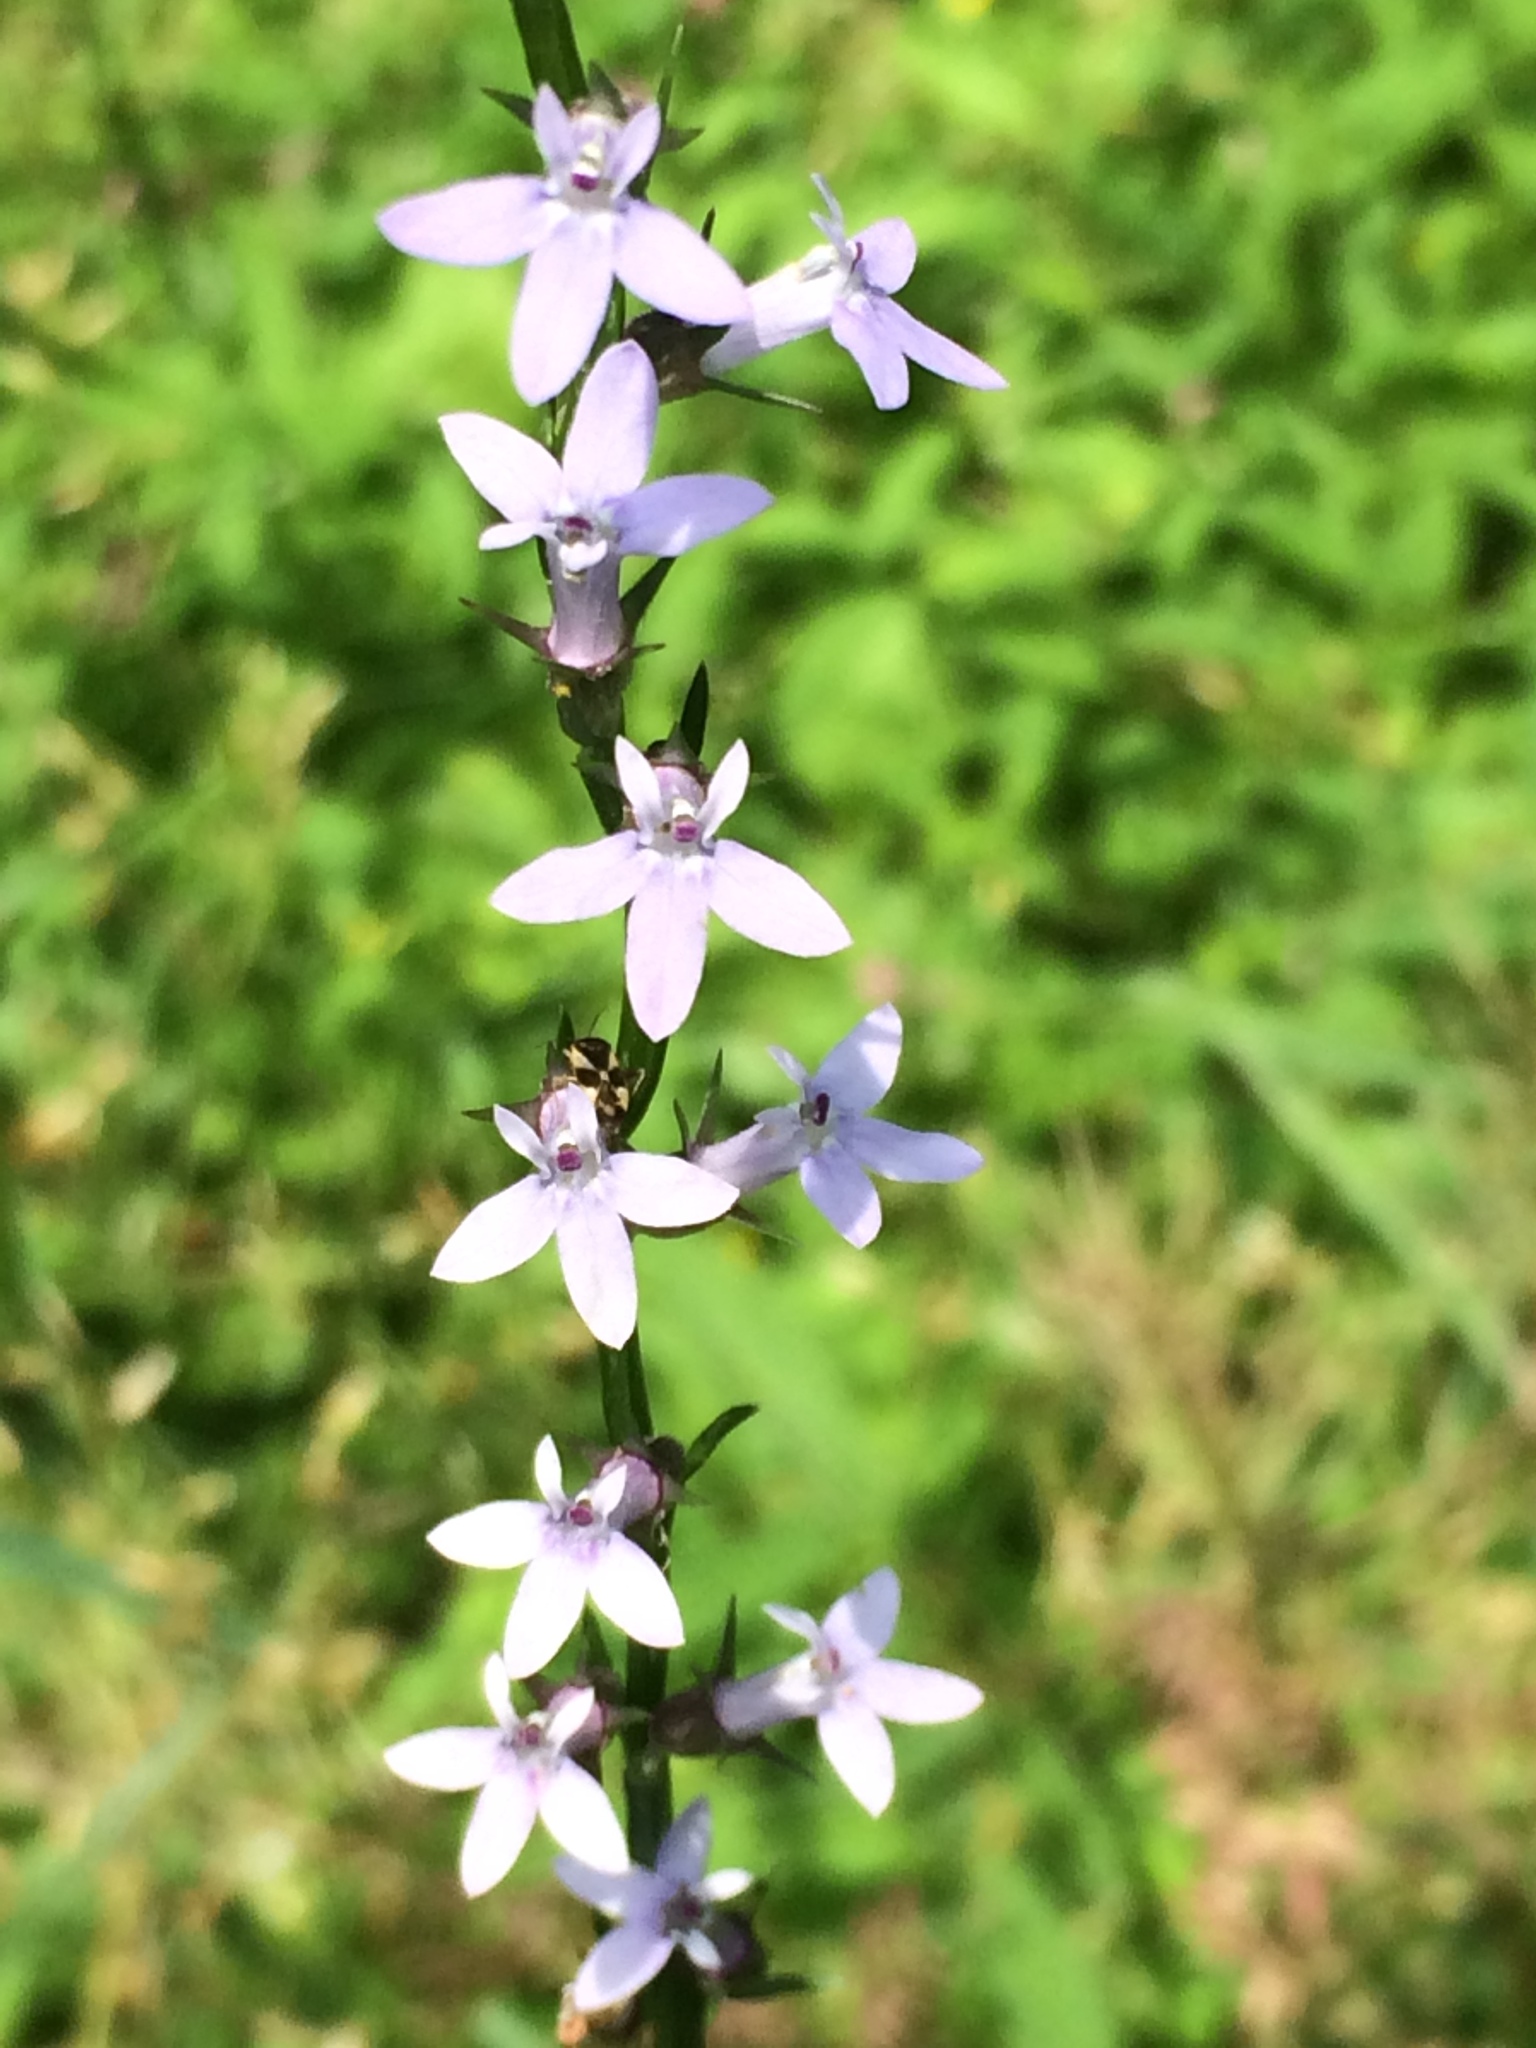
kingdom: Plantae
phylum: Tracheophyta
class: Magnoliopsida
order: Asterales
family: Campanulaceae
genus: Lobelia
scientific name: Lobelia spicata
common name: Pale-spike lobelia
